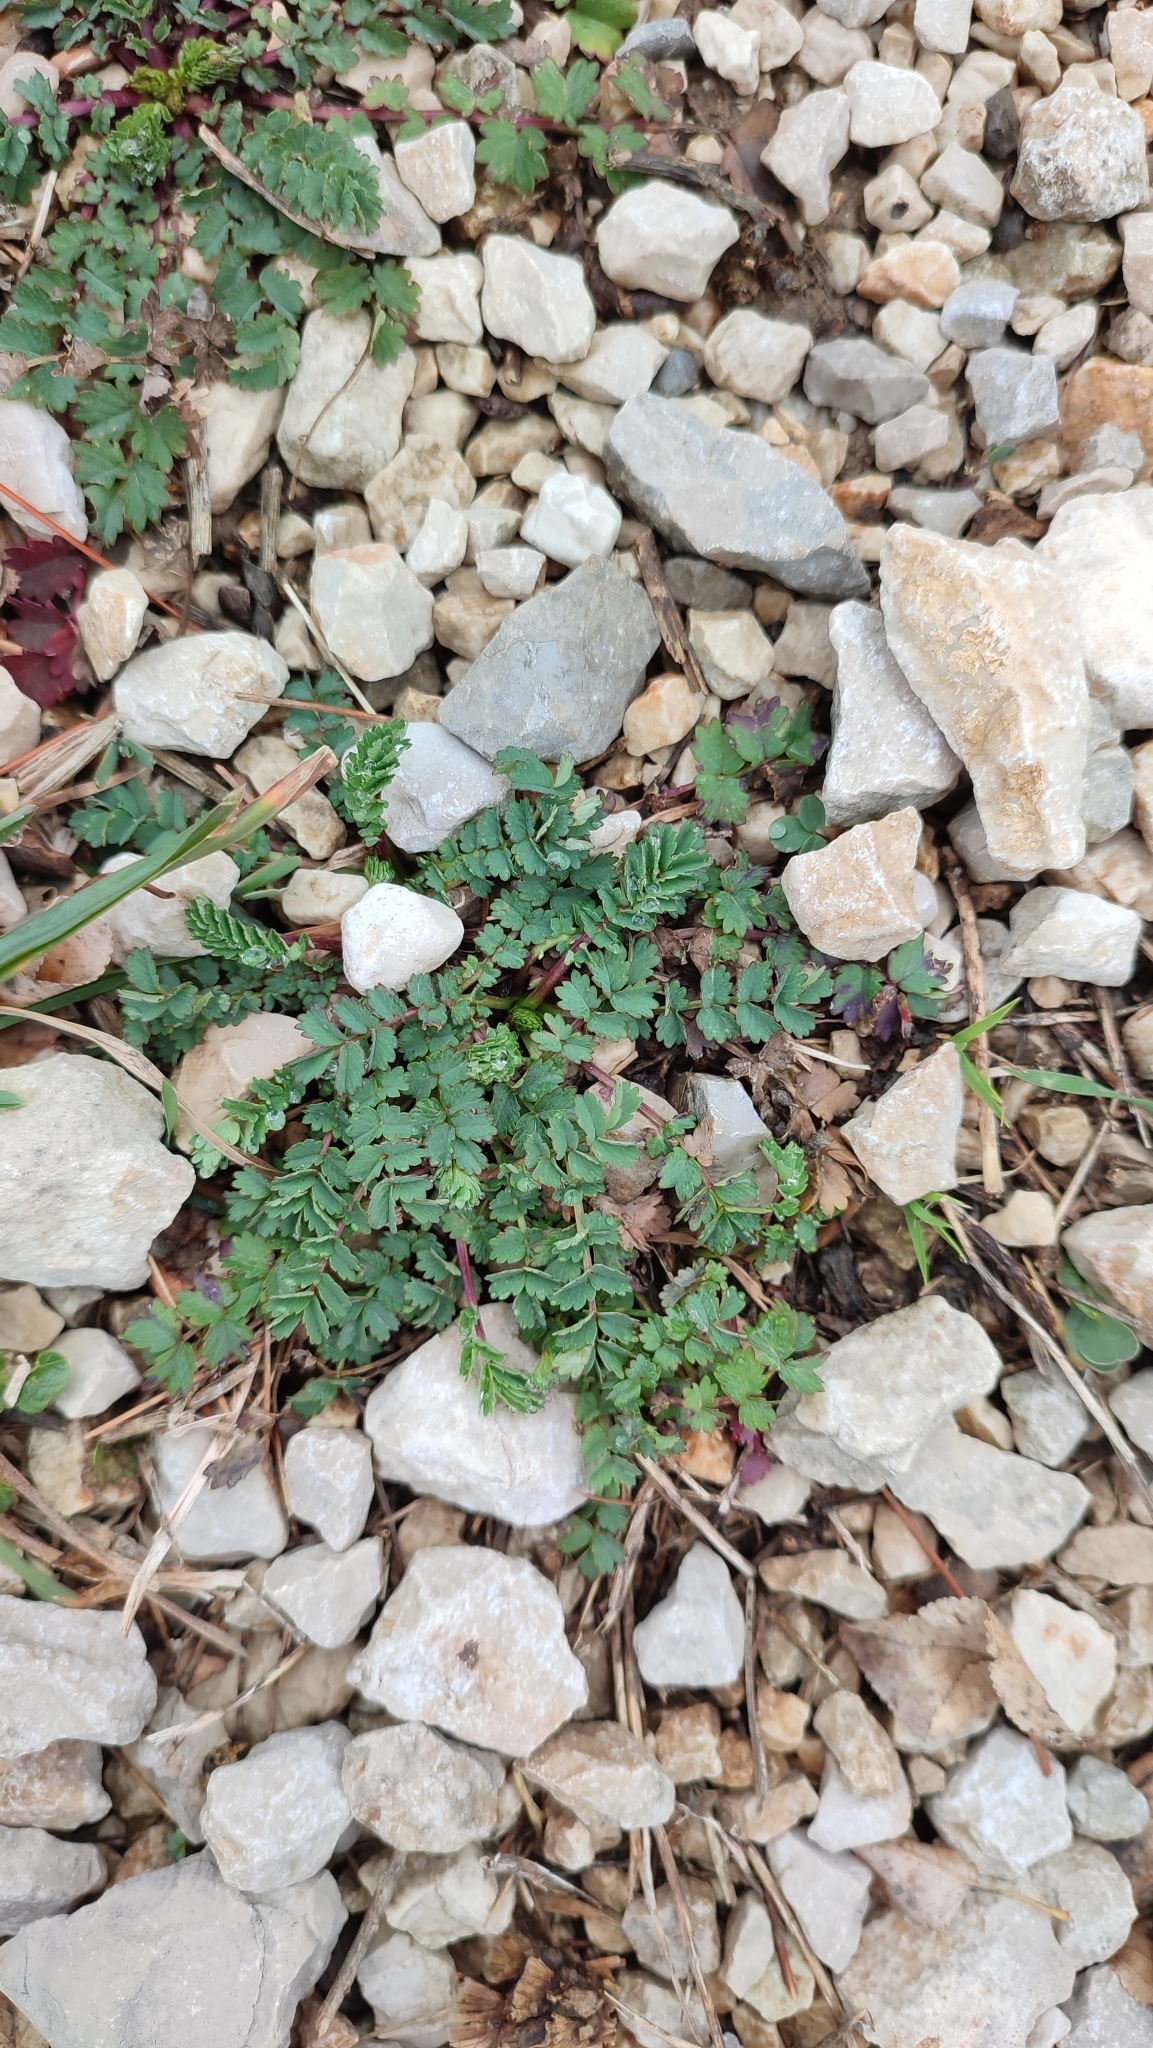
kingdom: Plantae
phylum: Tracheophyta
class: Magnoliopsida
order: Rosales
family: Rosaceae
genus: Poterium
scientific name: Poterium sanguisorba
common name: Salad burnet
